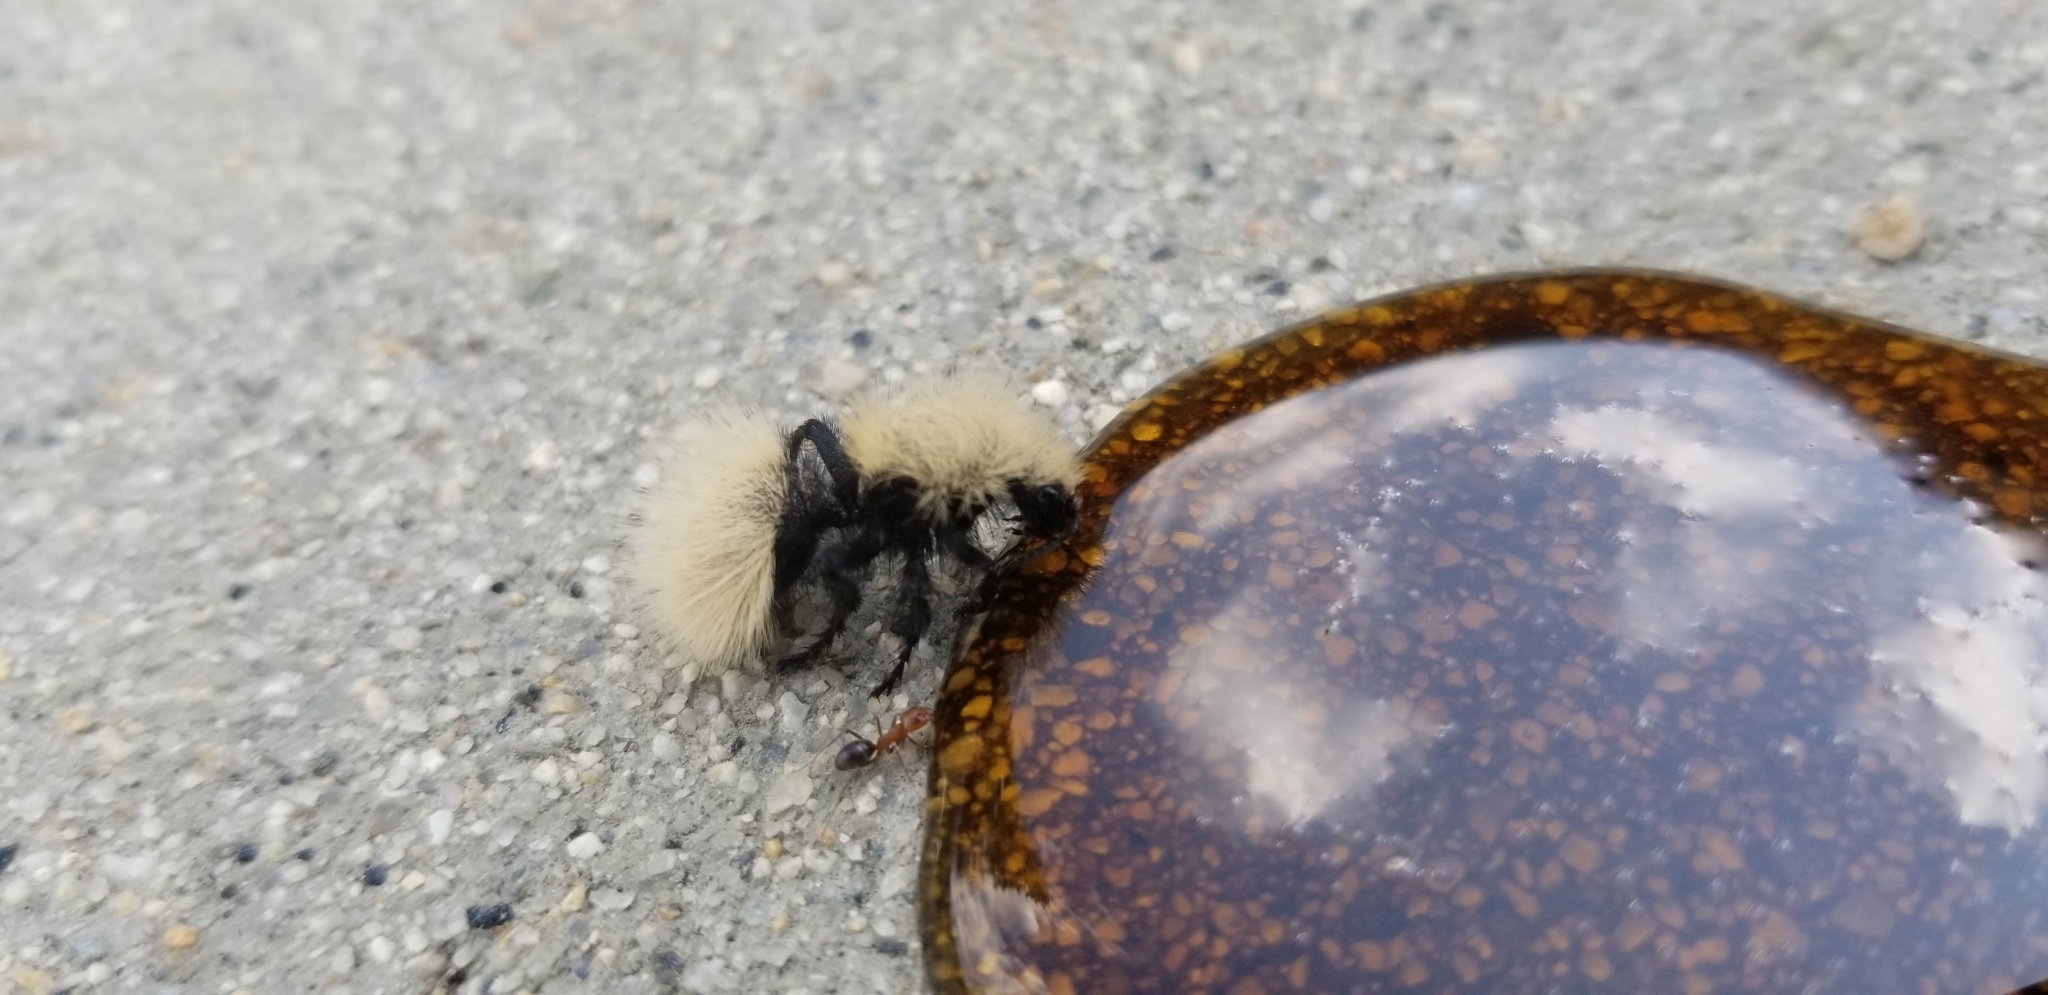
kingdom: Animalia
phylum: Arthropoda
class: Insecta
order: Hymenoptera
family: Mutillidae
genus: Dasymutilla
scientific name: Dasymutilla
